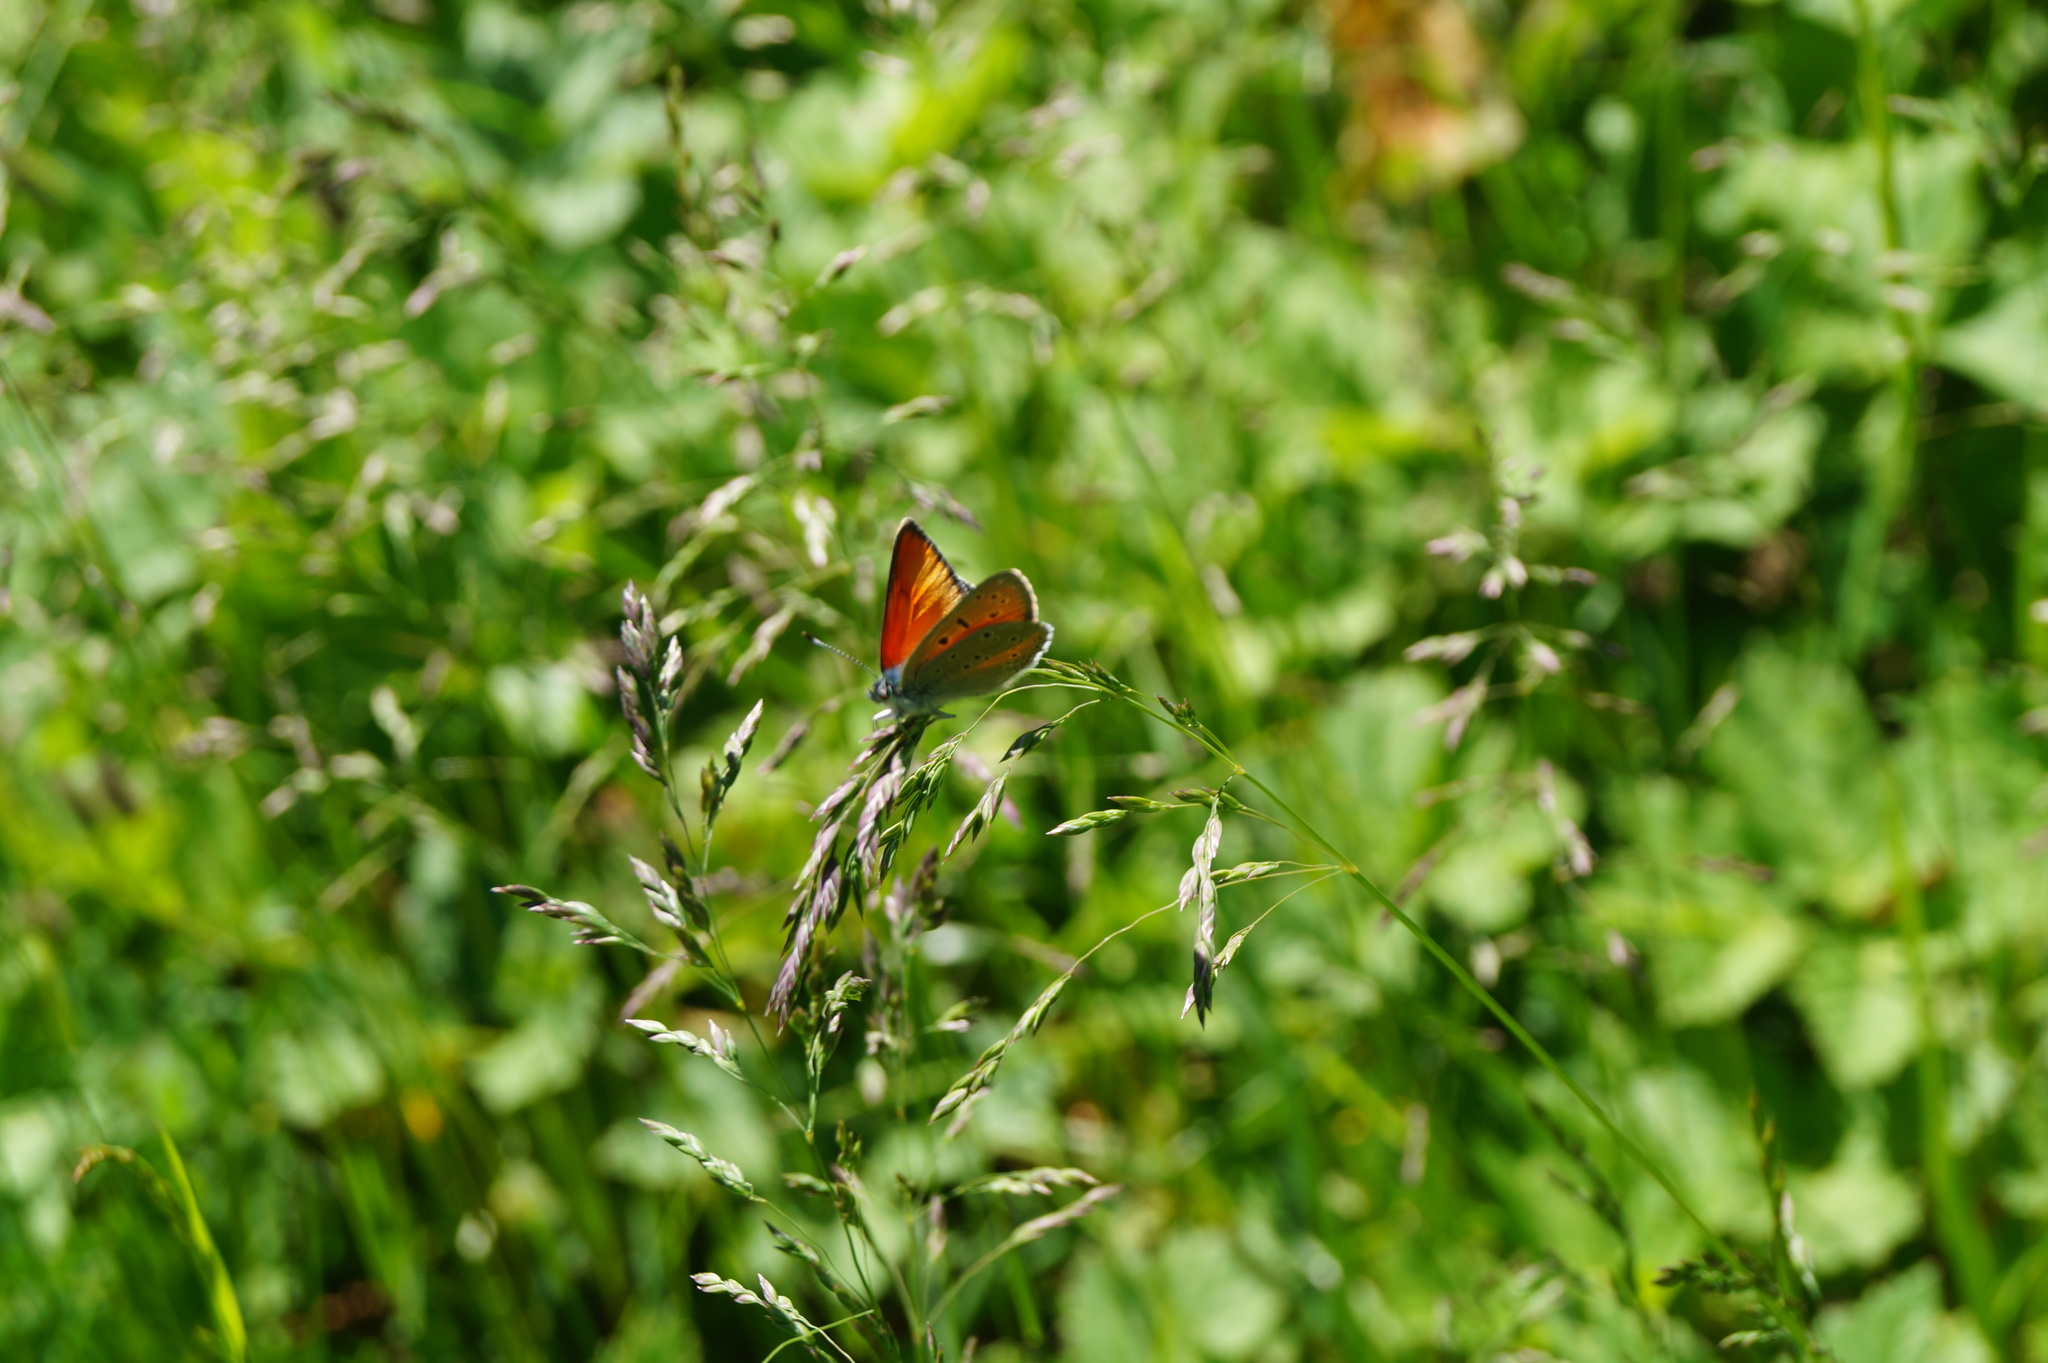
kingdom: Animalia
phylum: Arthropoda
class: Insecta
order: Lepidoptera
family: Lycaenidae
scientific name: Lycaenidae
